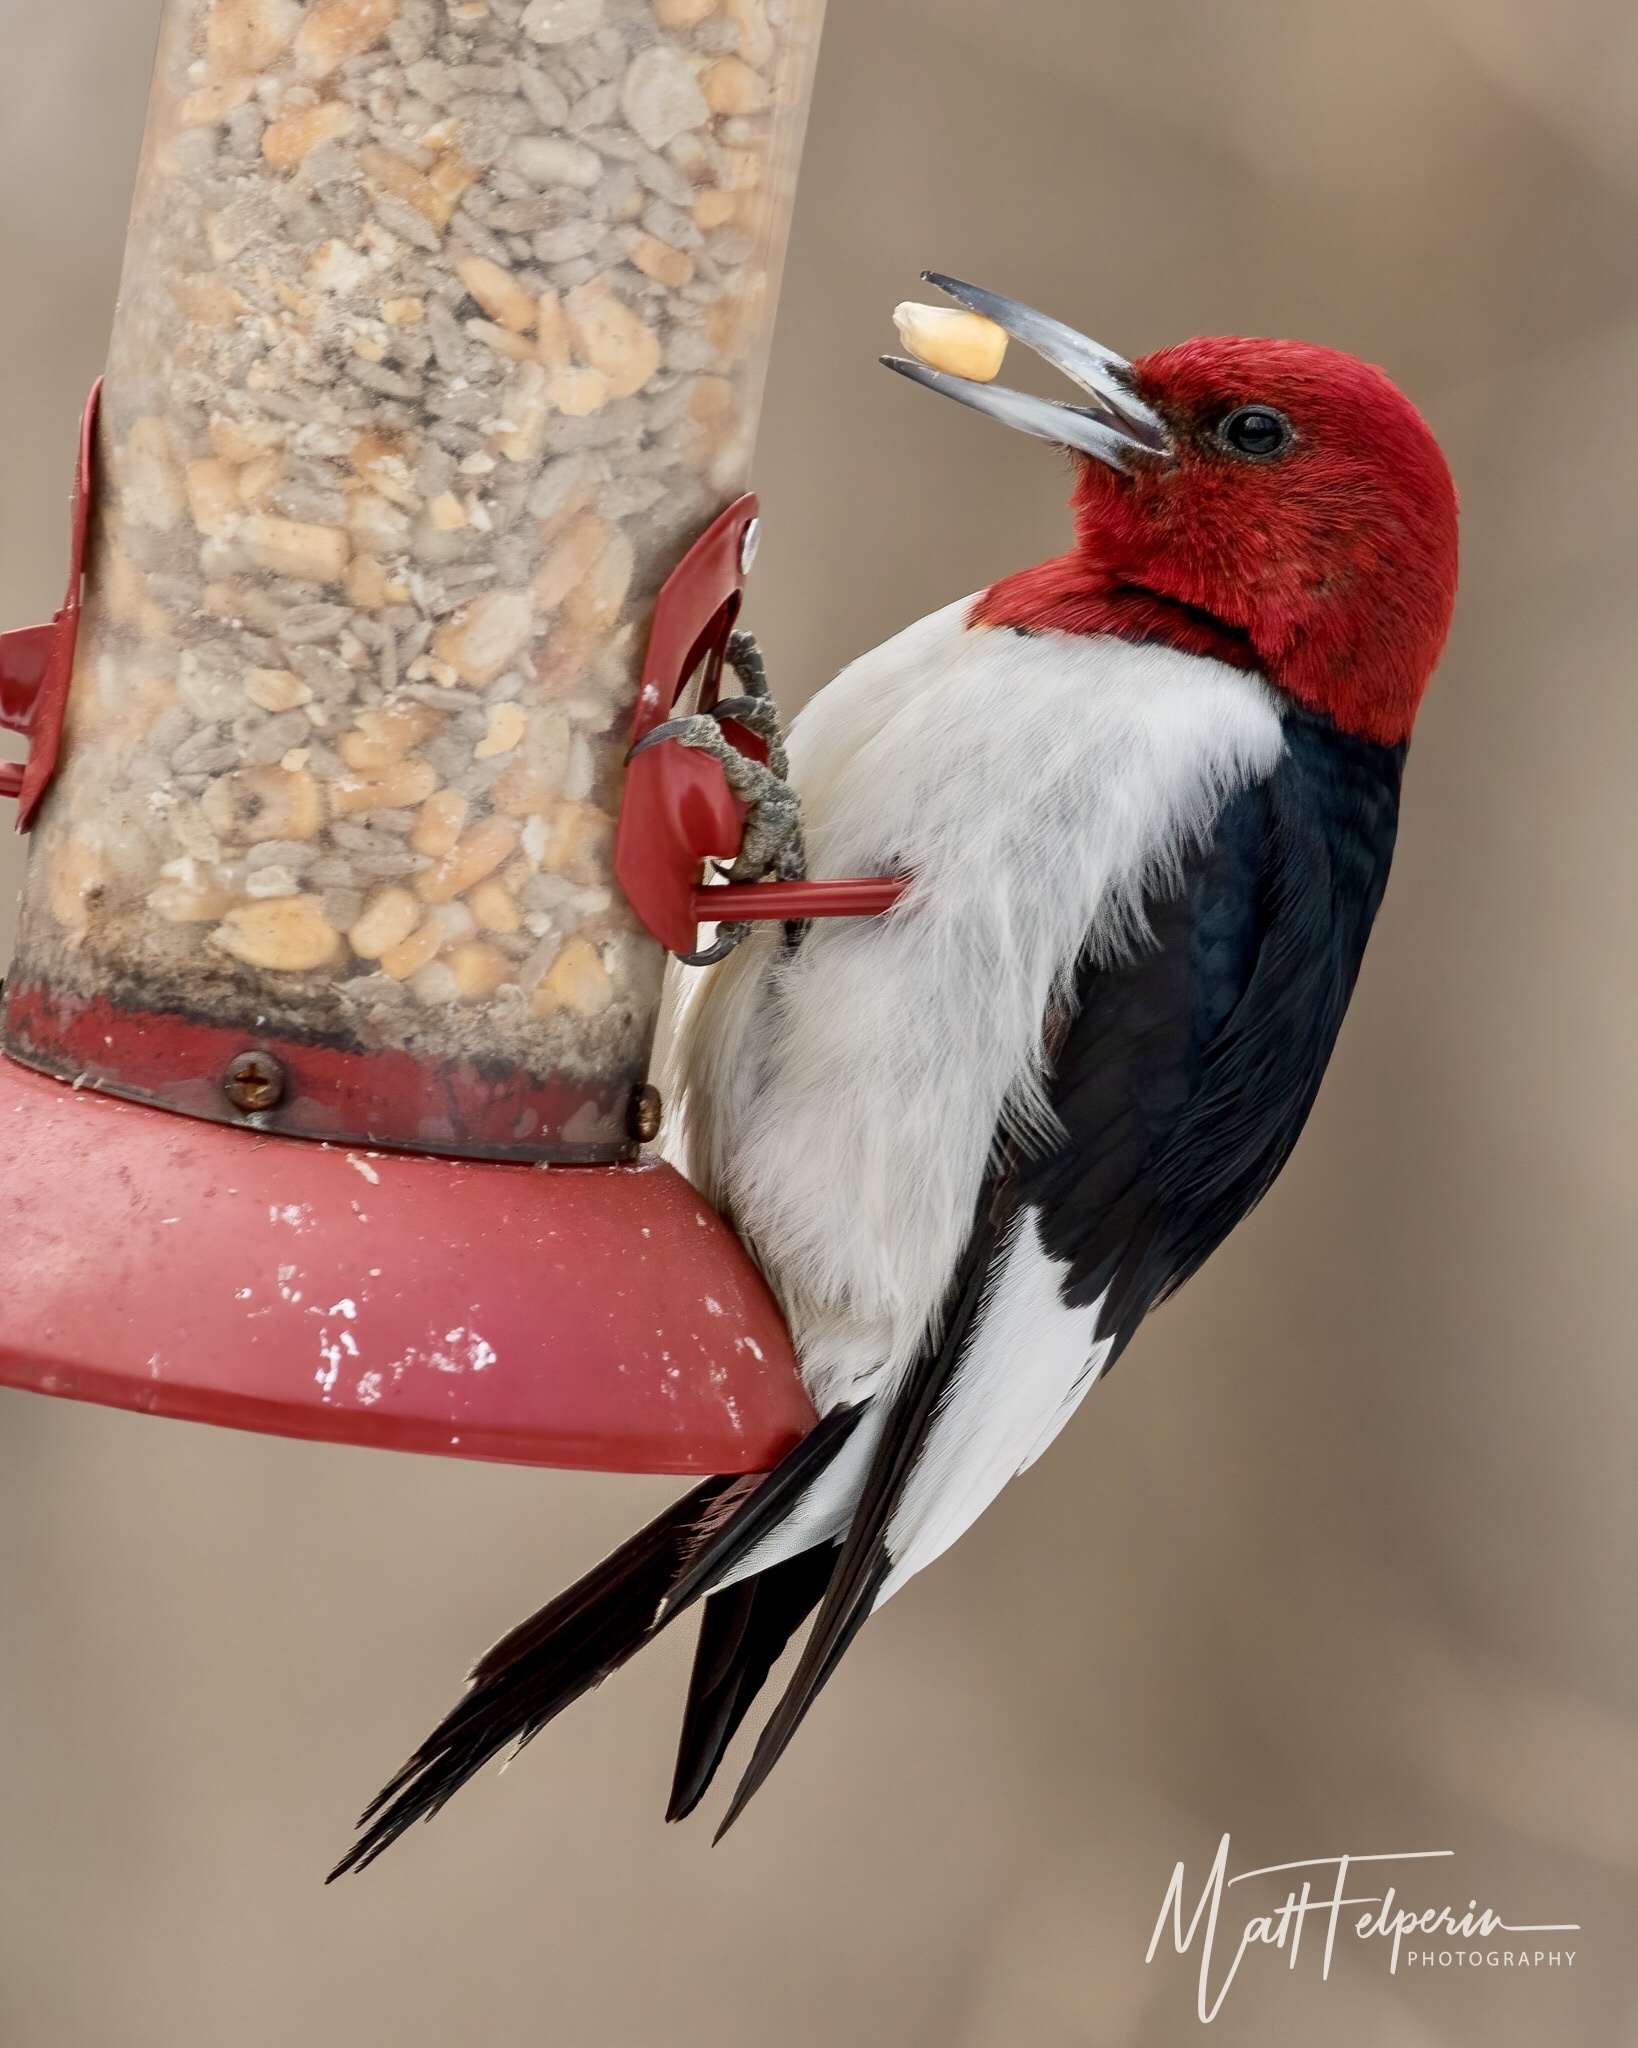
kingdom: Animalia
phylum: Chordata
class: Aves
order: Piciformes
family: Picidae
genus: Melanerpes
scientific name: Melanerpes erythrocephalus
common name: Red-headed woodpecker
